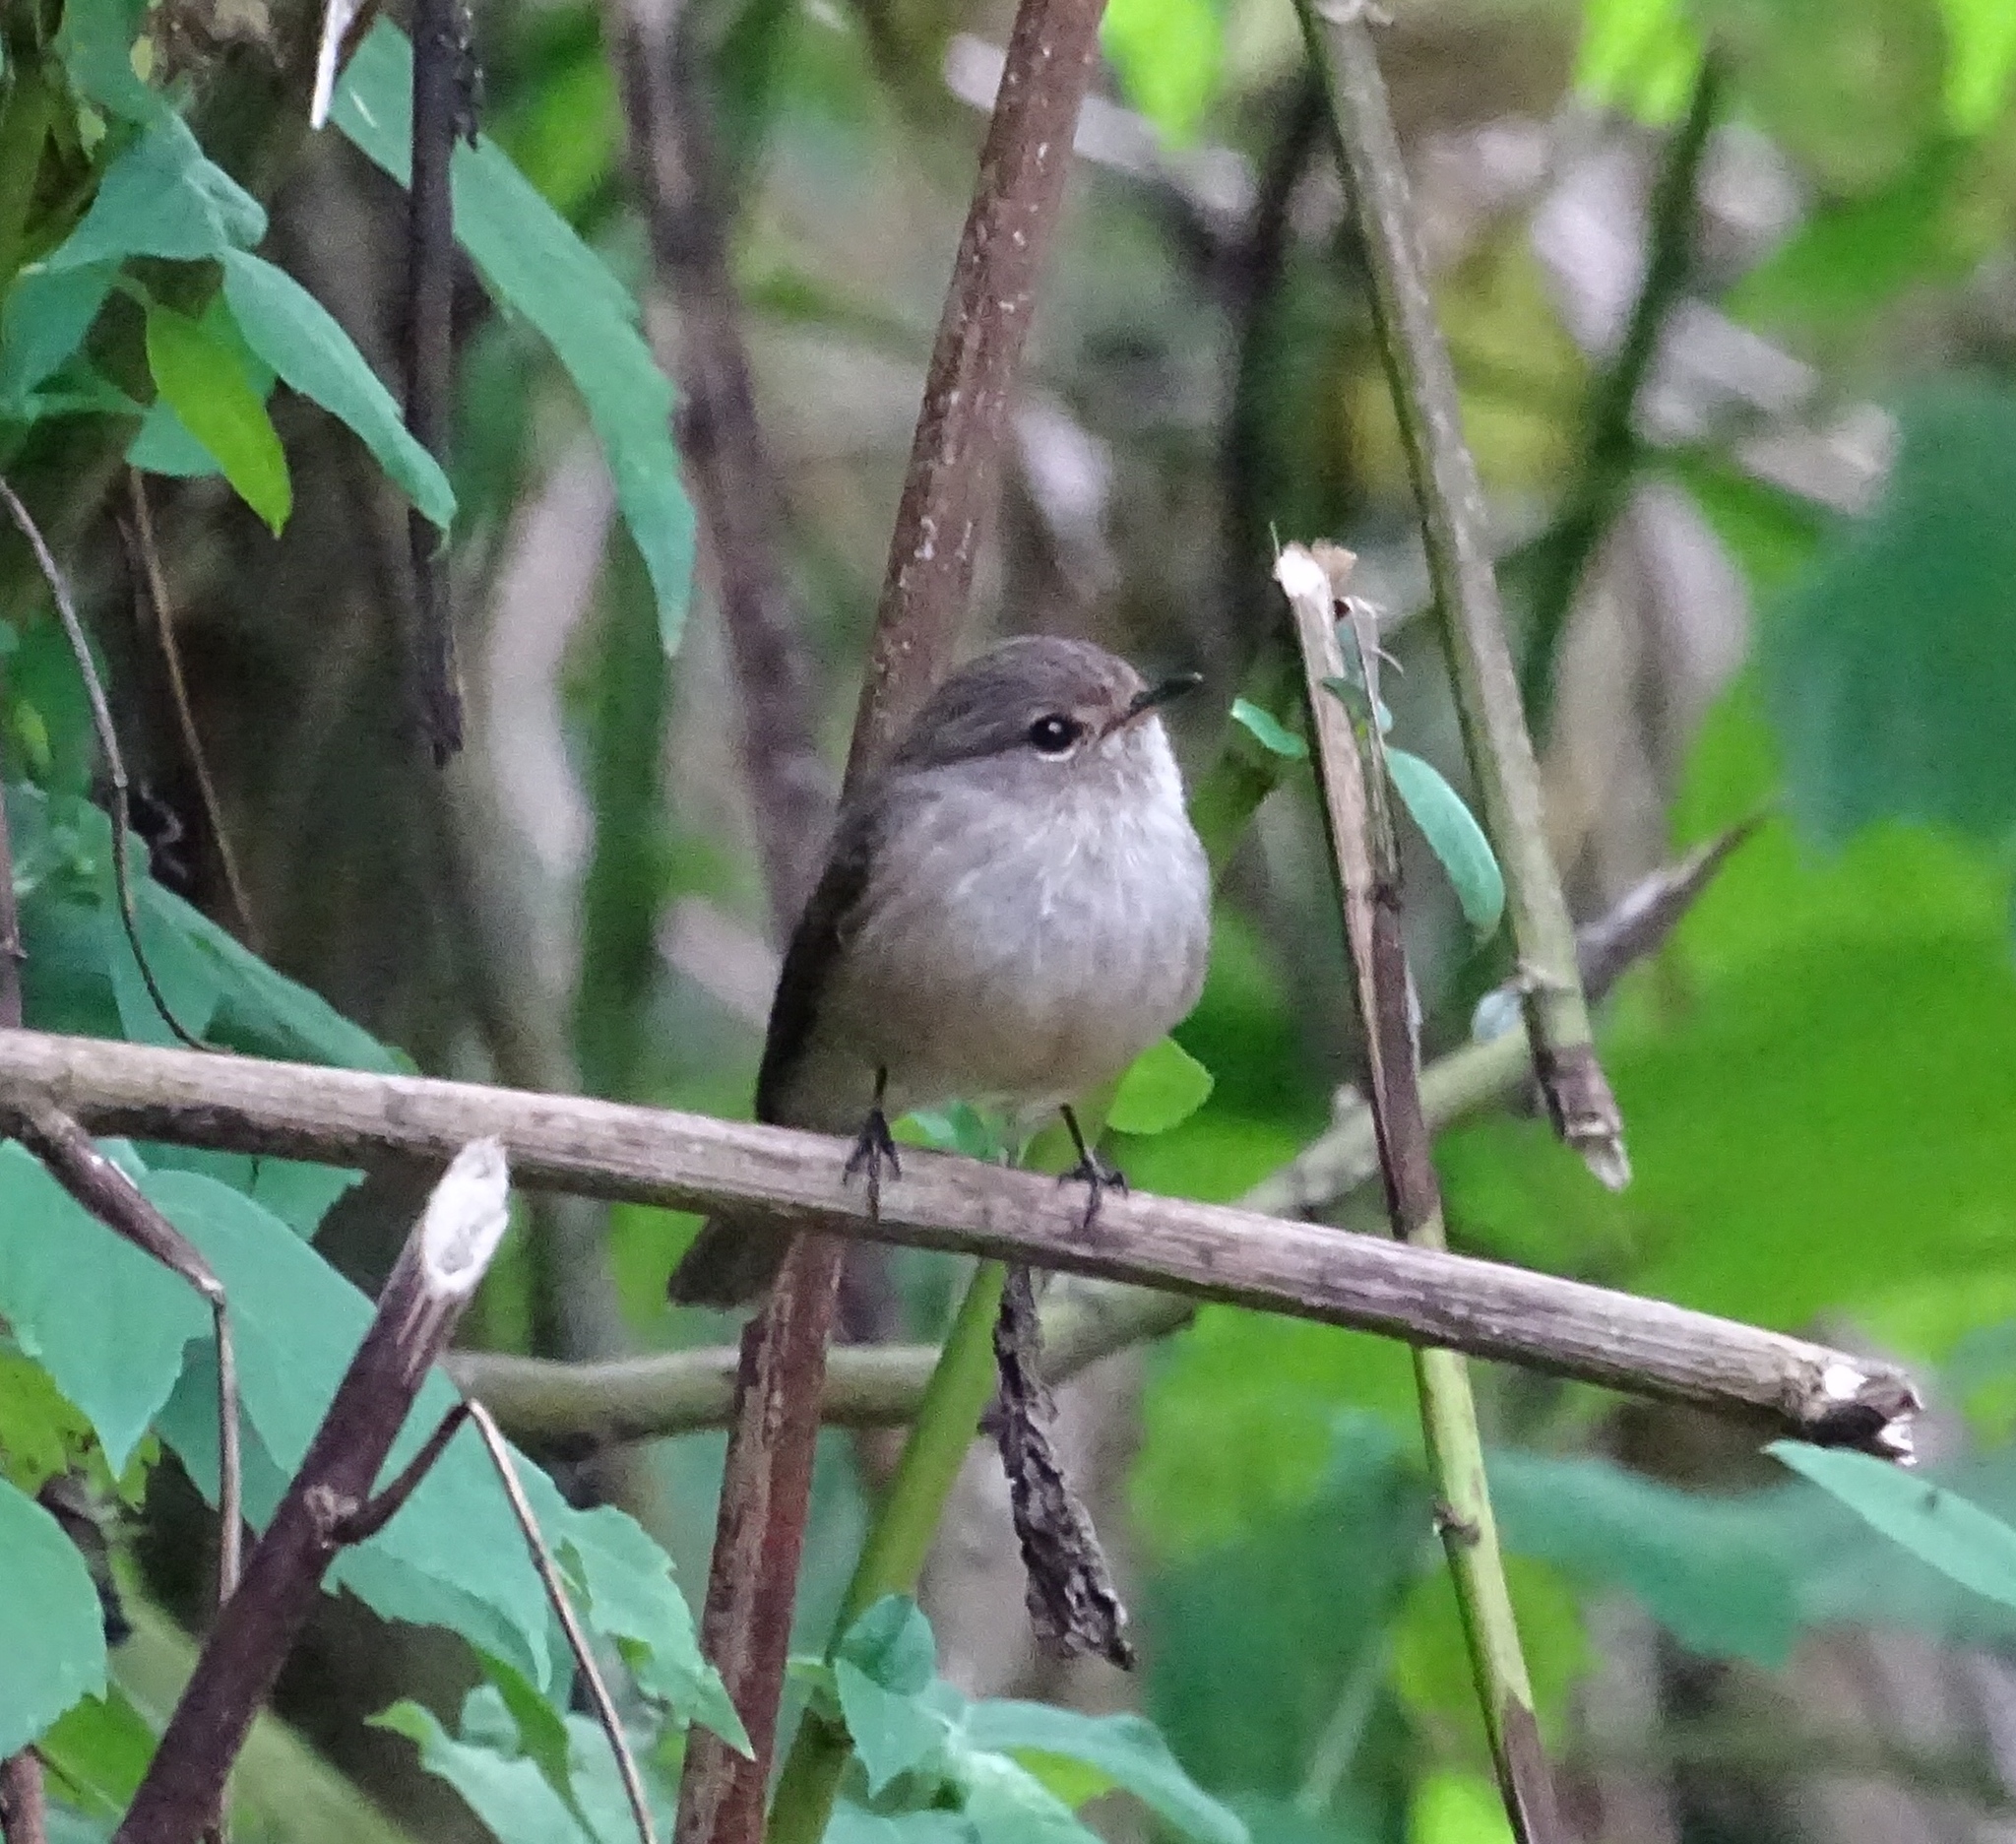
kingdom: Animalia
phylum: Chordata
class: Aves
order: Passeriformes
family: Muscicapidae
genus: Muscicapa
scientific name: Muscicapa adusta
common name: African dusky flycatcher
